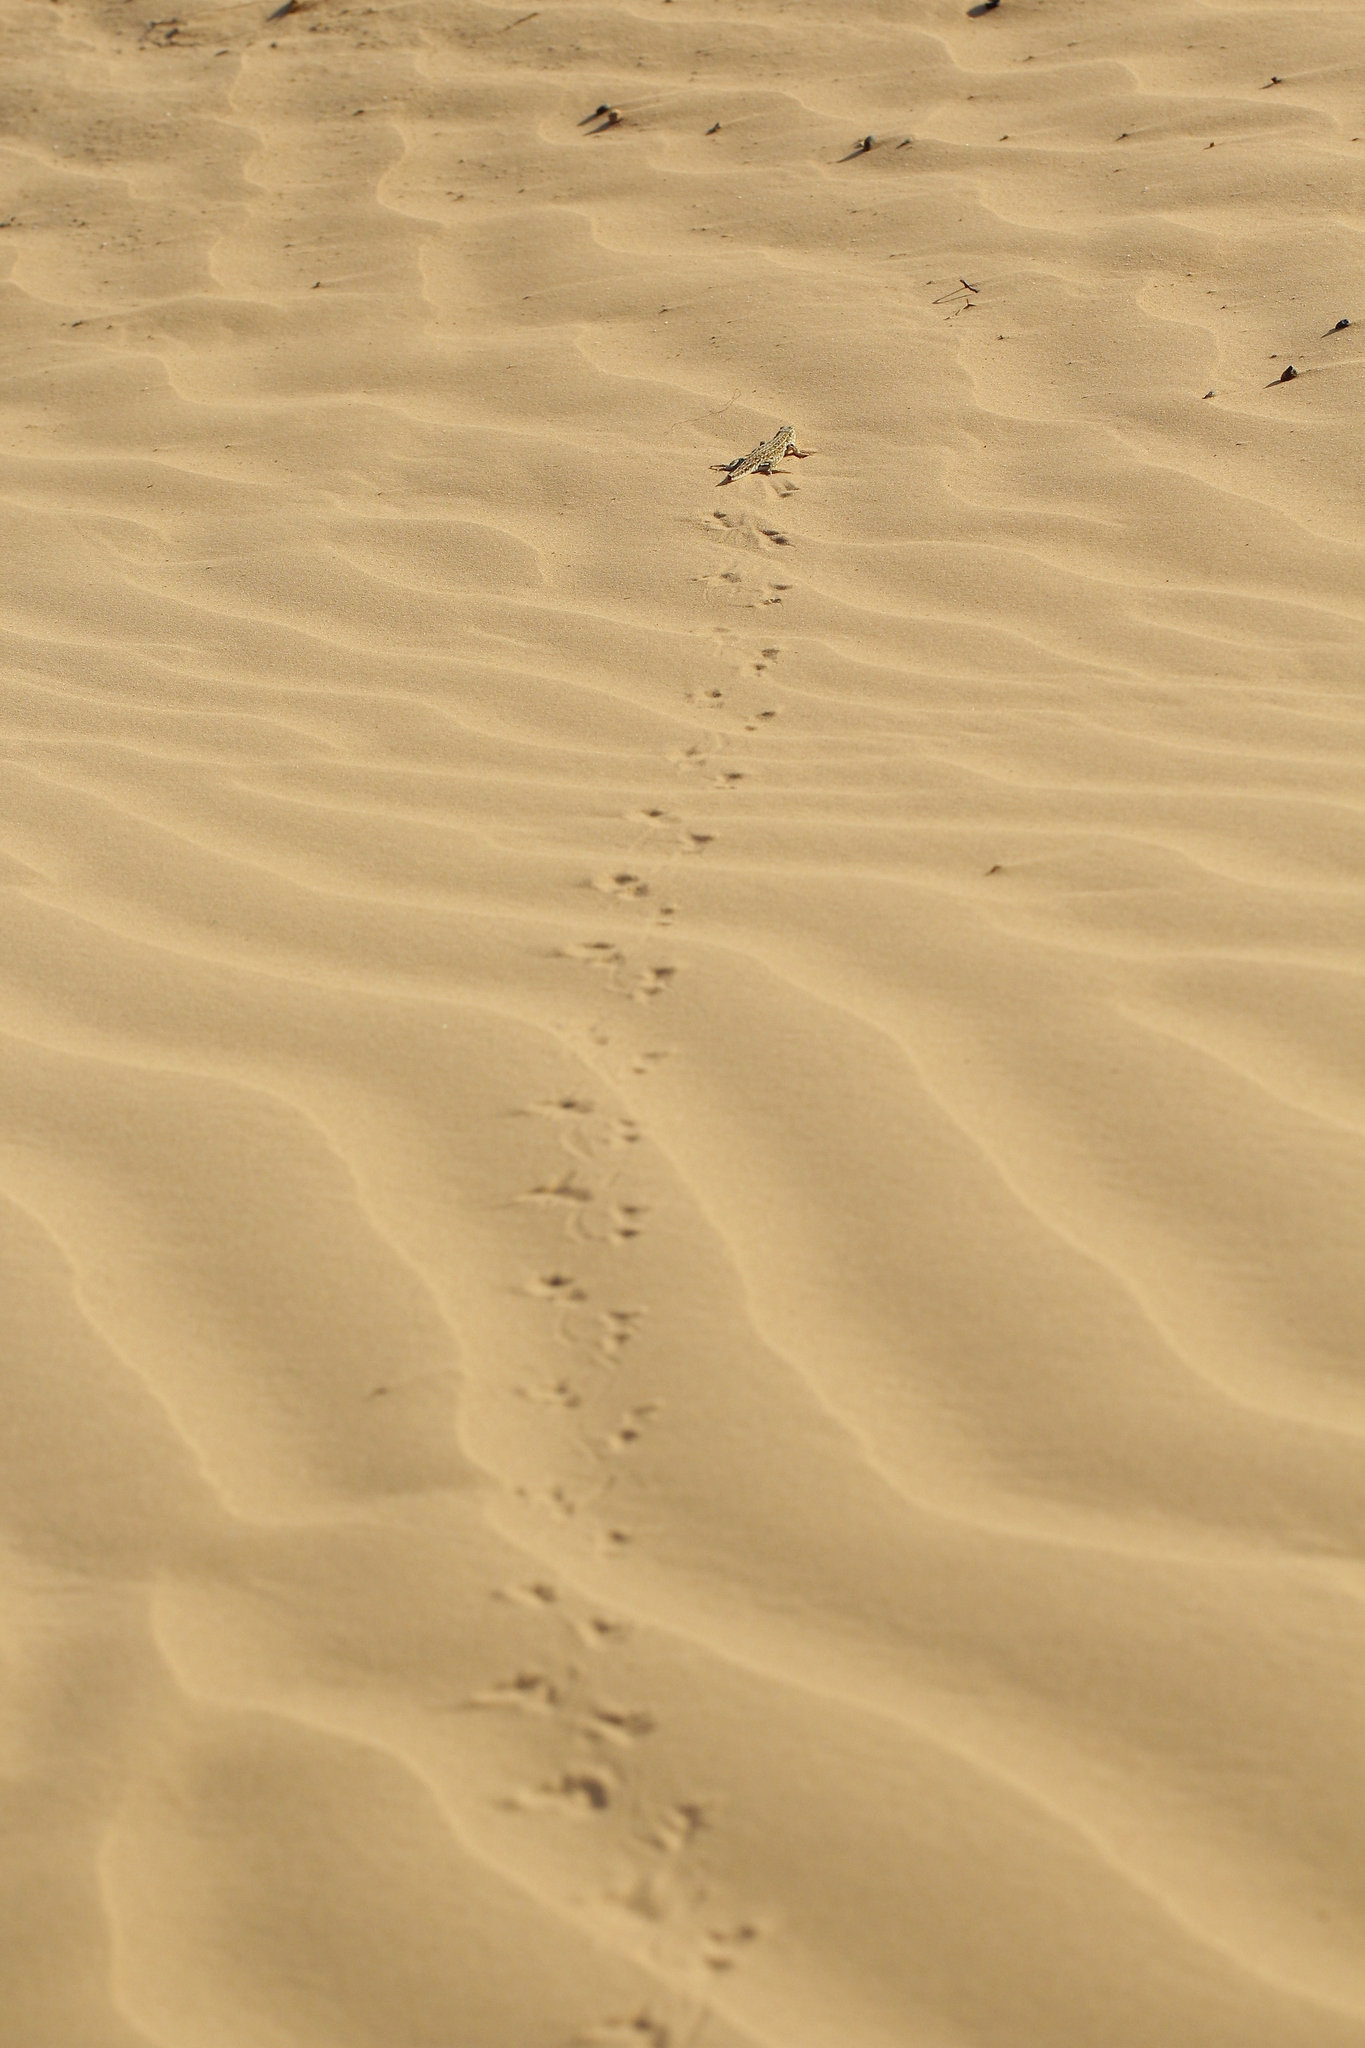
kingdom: Animalia
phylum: Chordata
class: Squamata
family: Lacertidae
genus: Eremias
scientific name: Eremias arguta
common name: Racerunner
